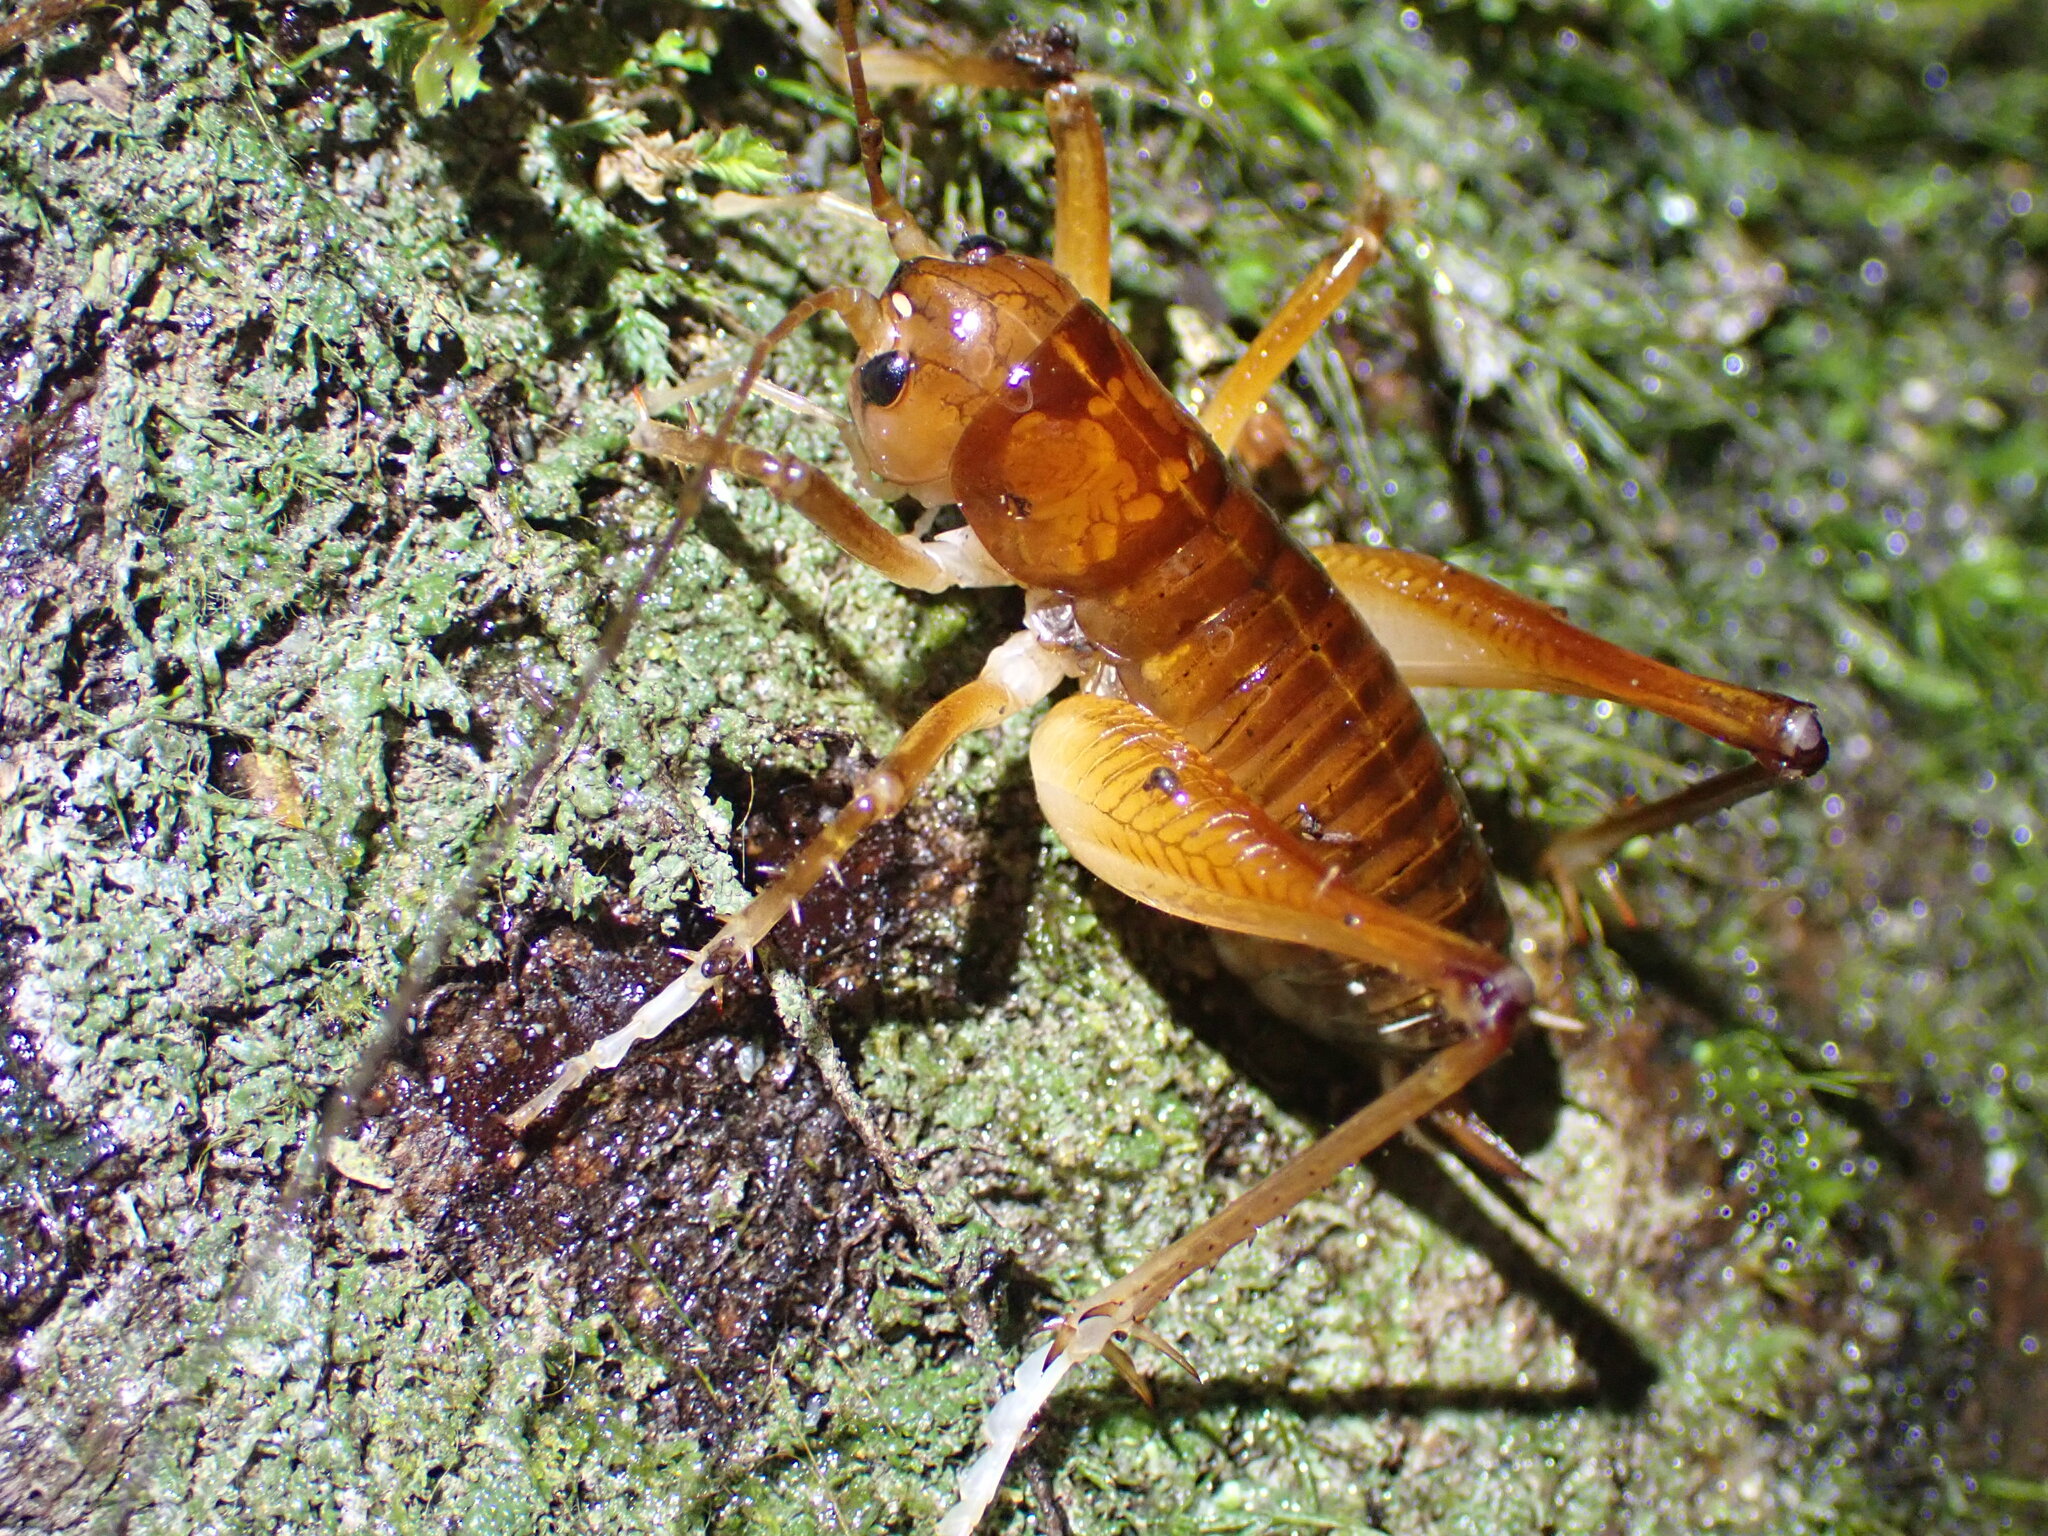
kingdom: Animalia
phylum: Arthropoda
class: Insecta
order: Orthoptera
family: Anostostomatidae
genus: Hemiandrus
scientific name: Hemiandrus electra
